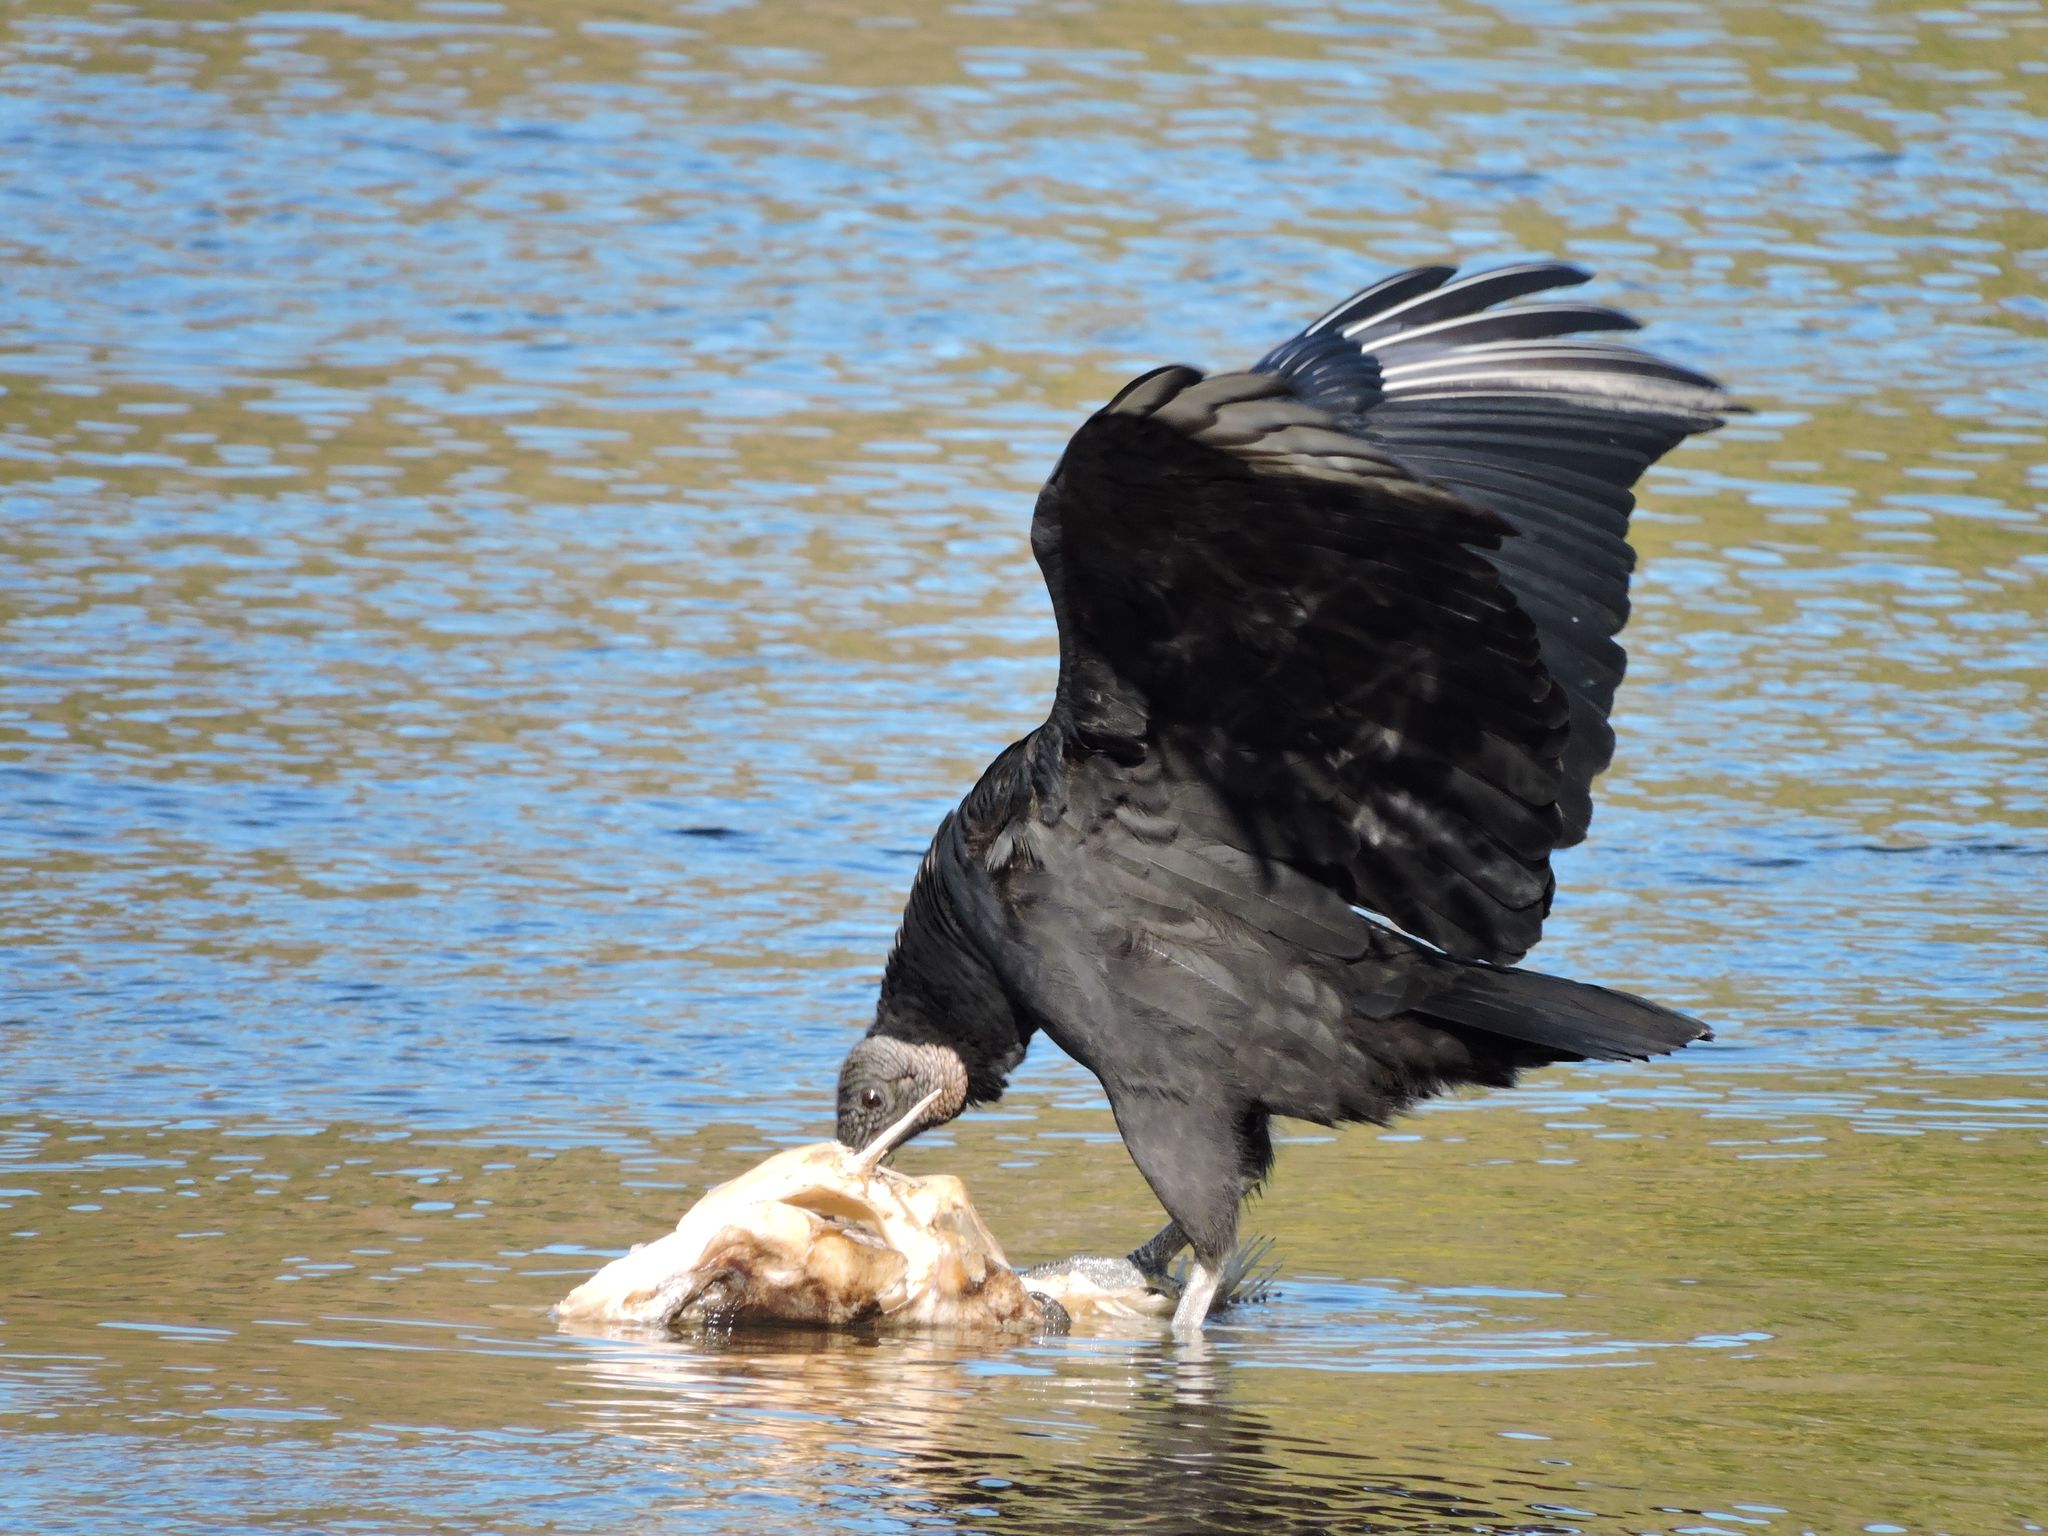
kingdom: Animalia
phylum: Chordata
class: Aves
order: Accipitriformes
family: Cathartidae
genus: Coragyps
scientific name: Coragyps atratus
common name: Black vulture
